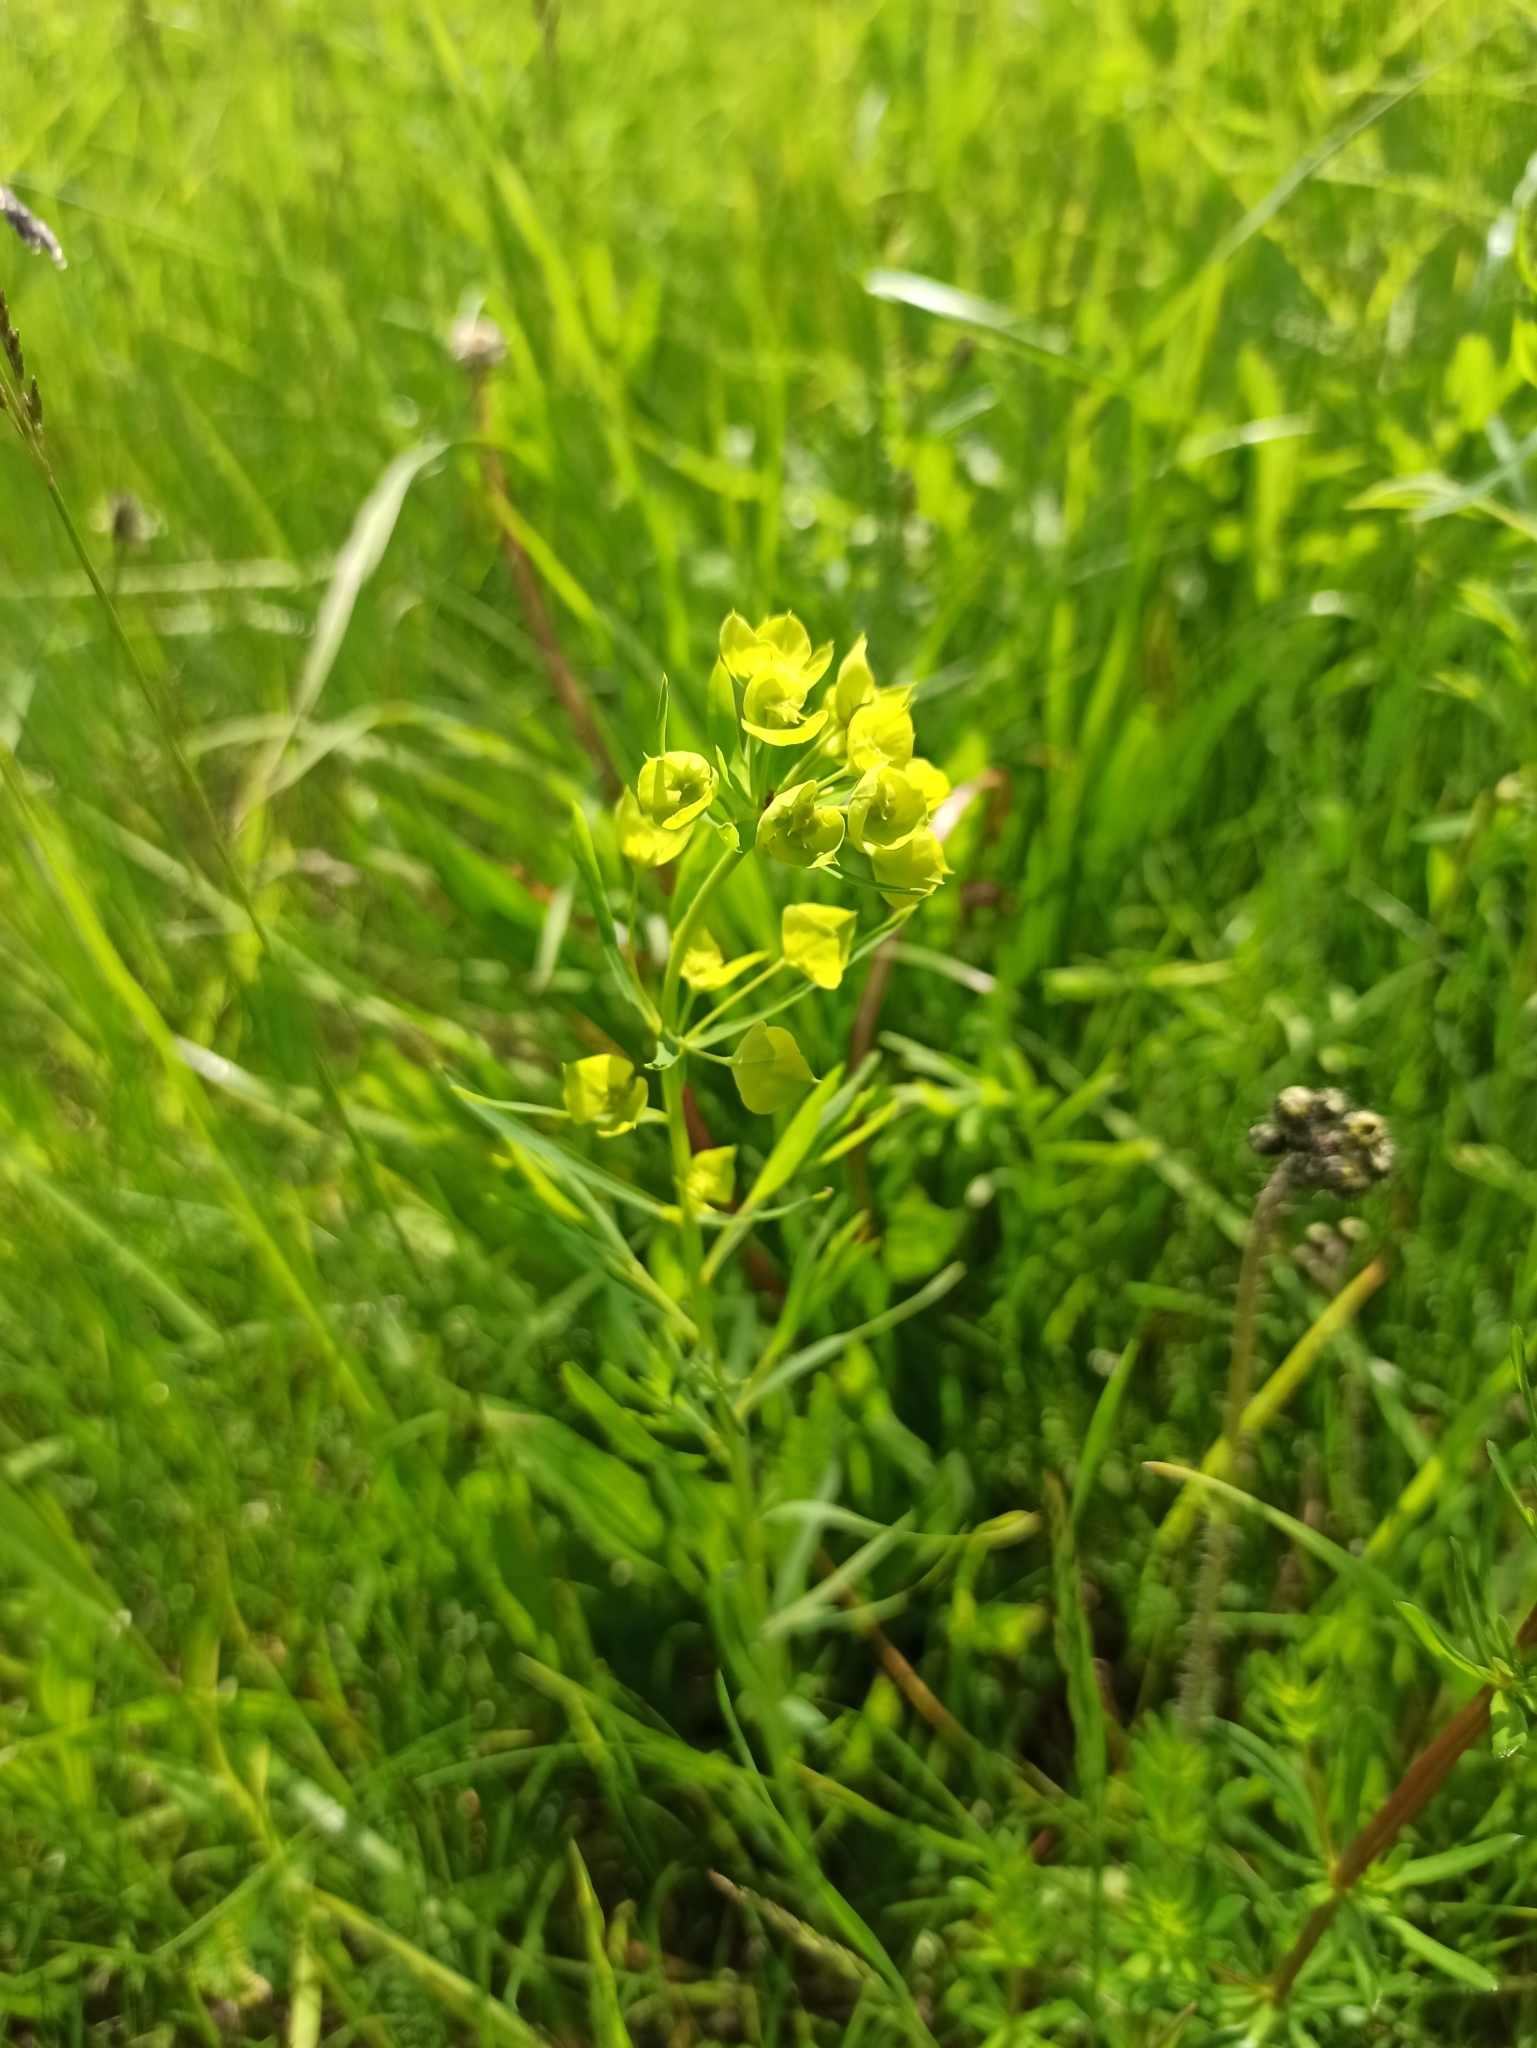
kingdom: Plantae
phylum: Tracheophyta
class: Magnoliopsida
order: Malpighiales
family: Euphorbiaceae
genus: Euphorbia
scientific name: Euphorbia virgata
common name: Leafy spurge
